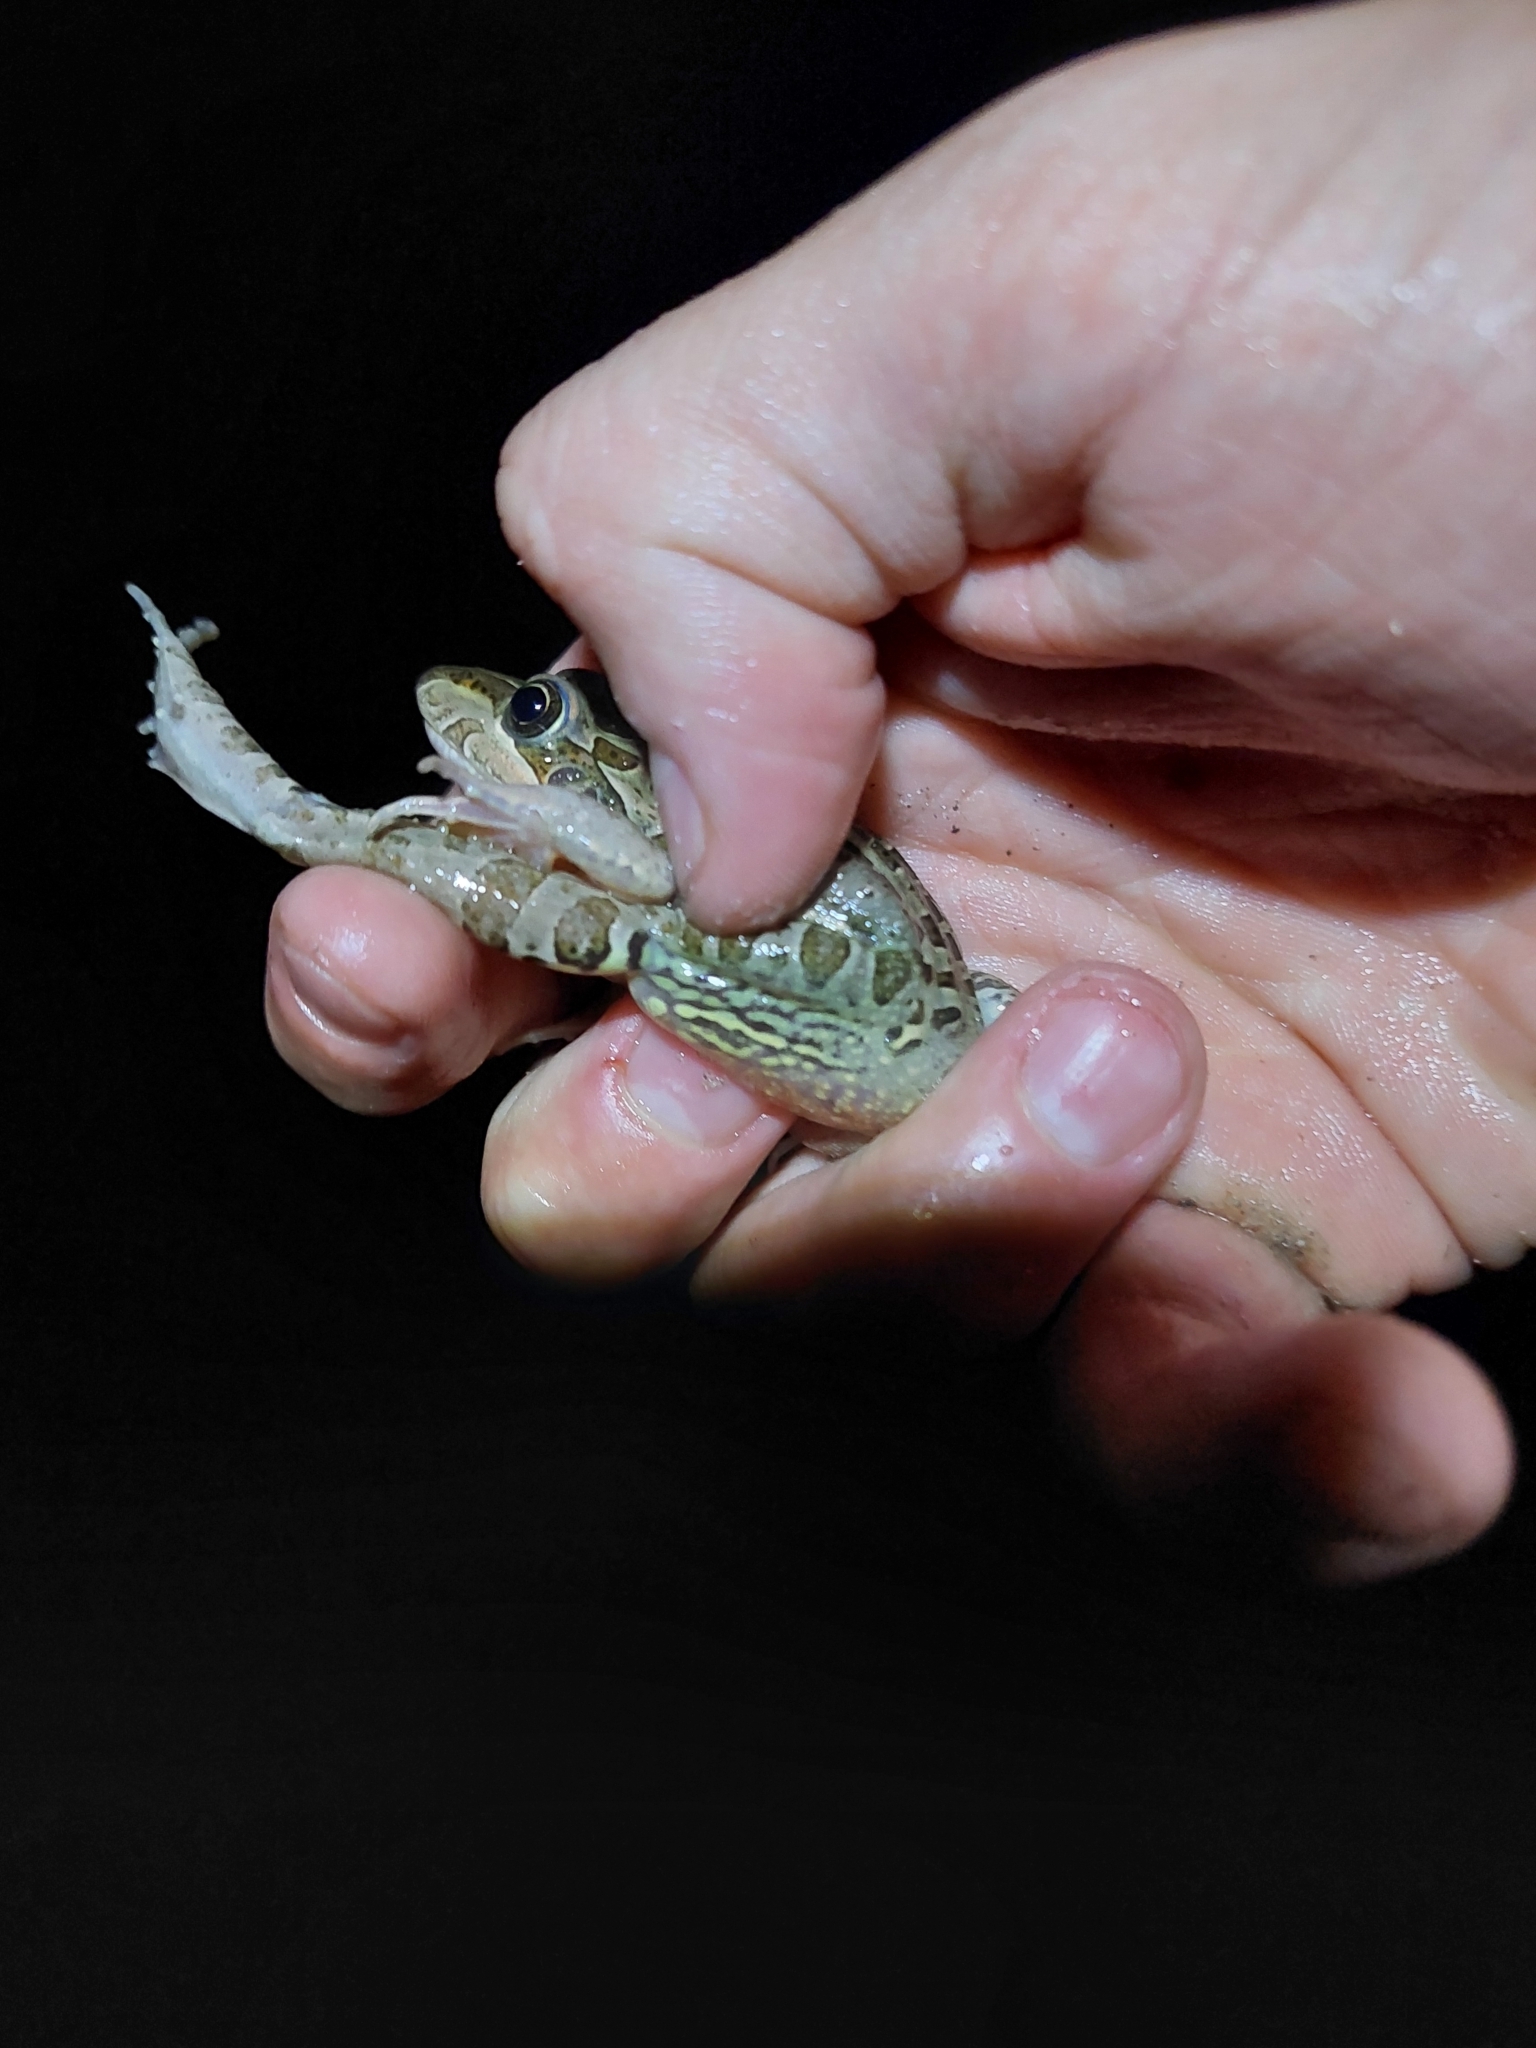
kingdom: Animalia
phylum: Chordata
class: Amphibia
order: Anura
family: Leptodactylidae
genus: Leptodactylus
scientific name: Leptodactylus luctator
